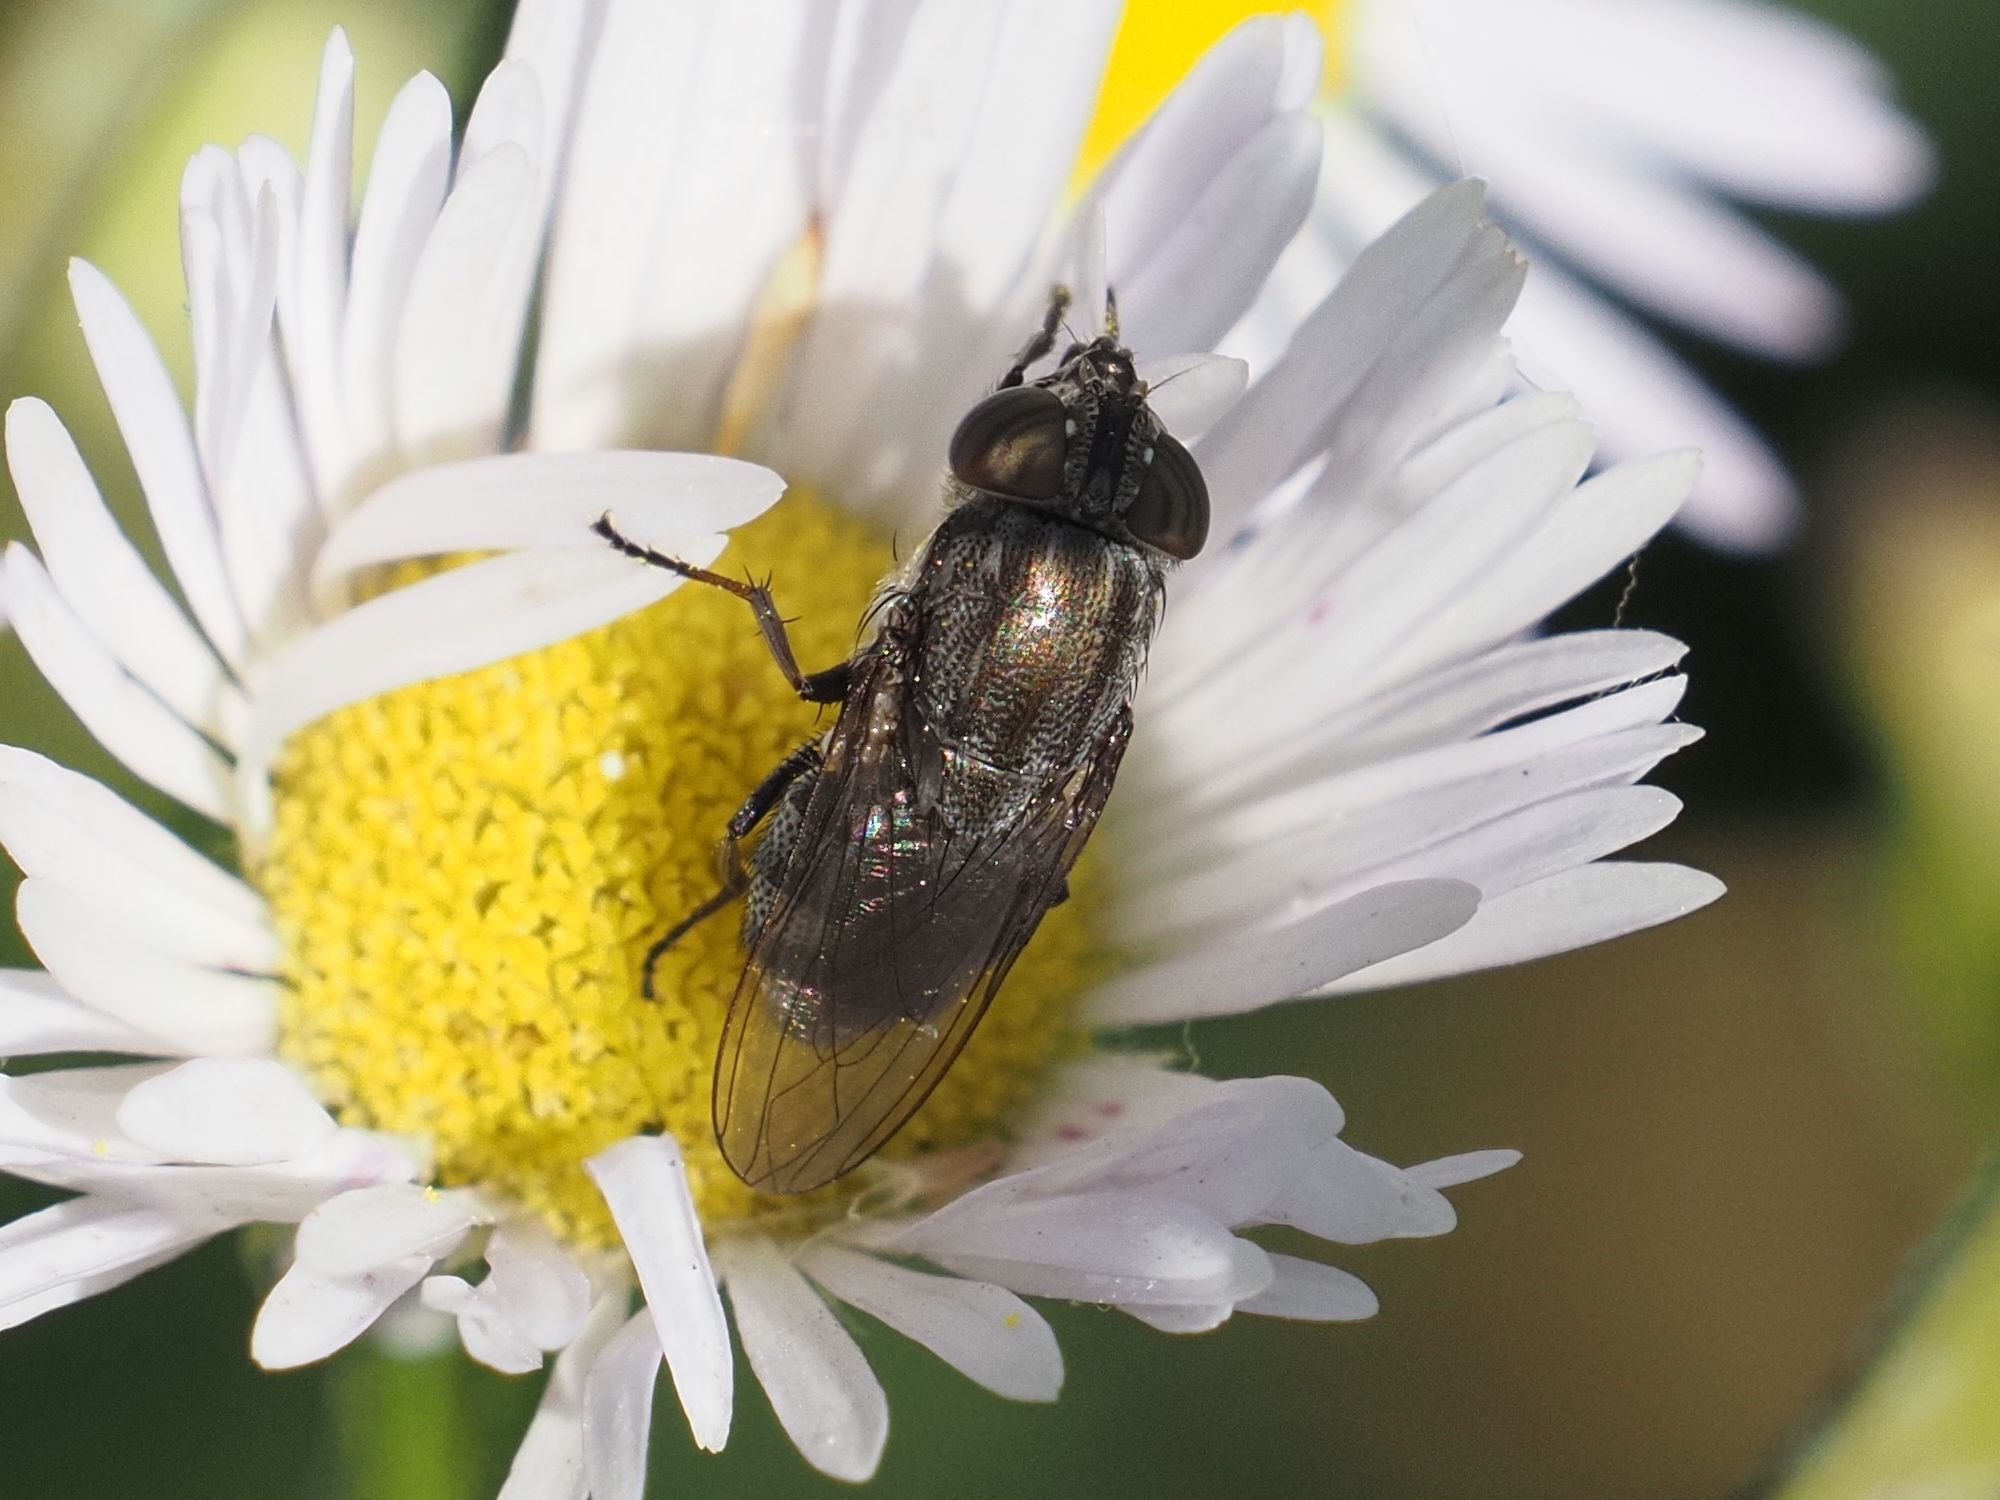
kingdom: Animalia
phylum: Arthropoda
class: Insecta
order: Diptera
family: Calliphoridae
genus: Stomorhina
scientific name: Stomorhina lunata
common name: Locust blowfly
